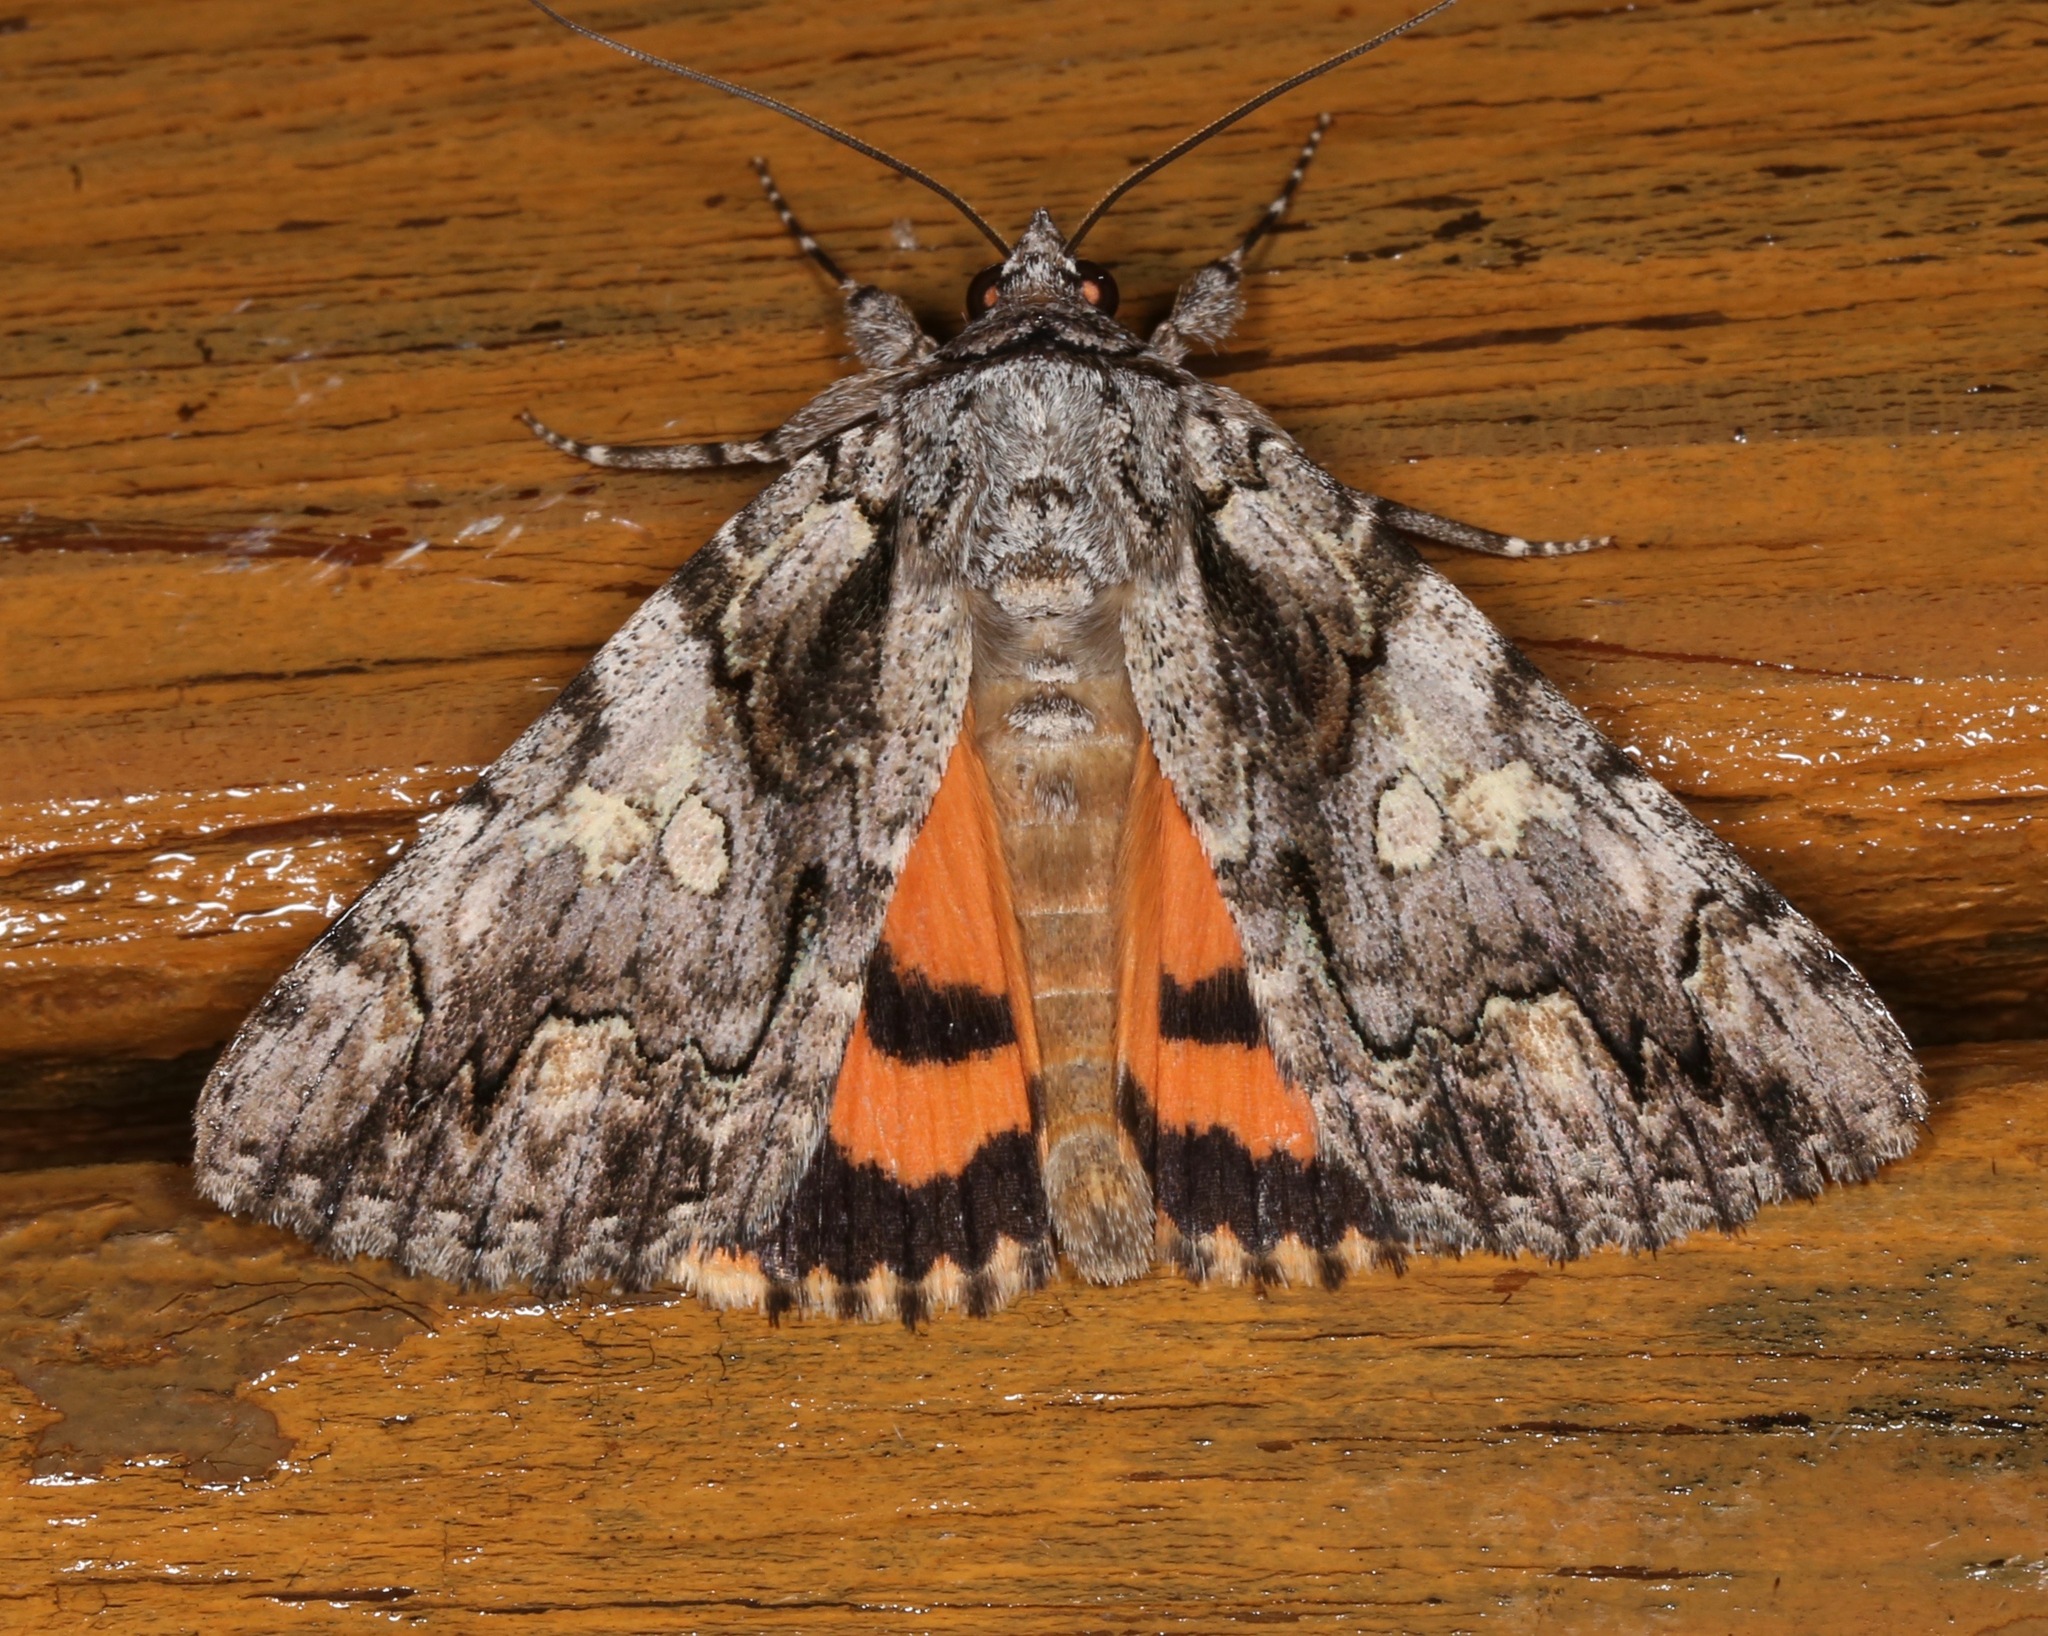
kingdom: Animalia
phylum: Arthropoda
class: Insecta
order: Lepidoptera
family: Erebidae
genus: Catocala
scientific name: Catocala verrilliana
